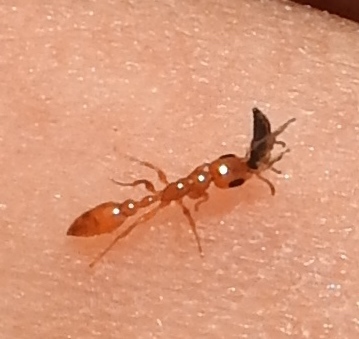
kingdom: Animalia
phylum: Arthropoda
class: Insecta
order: Hymenoptera
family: Formicidae
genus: Pseudomyrmex
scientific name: Pseudomyrmex pallidus
